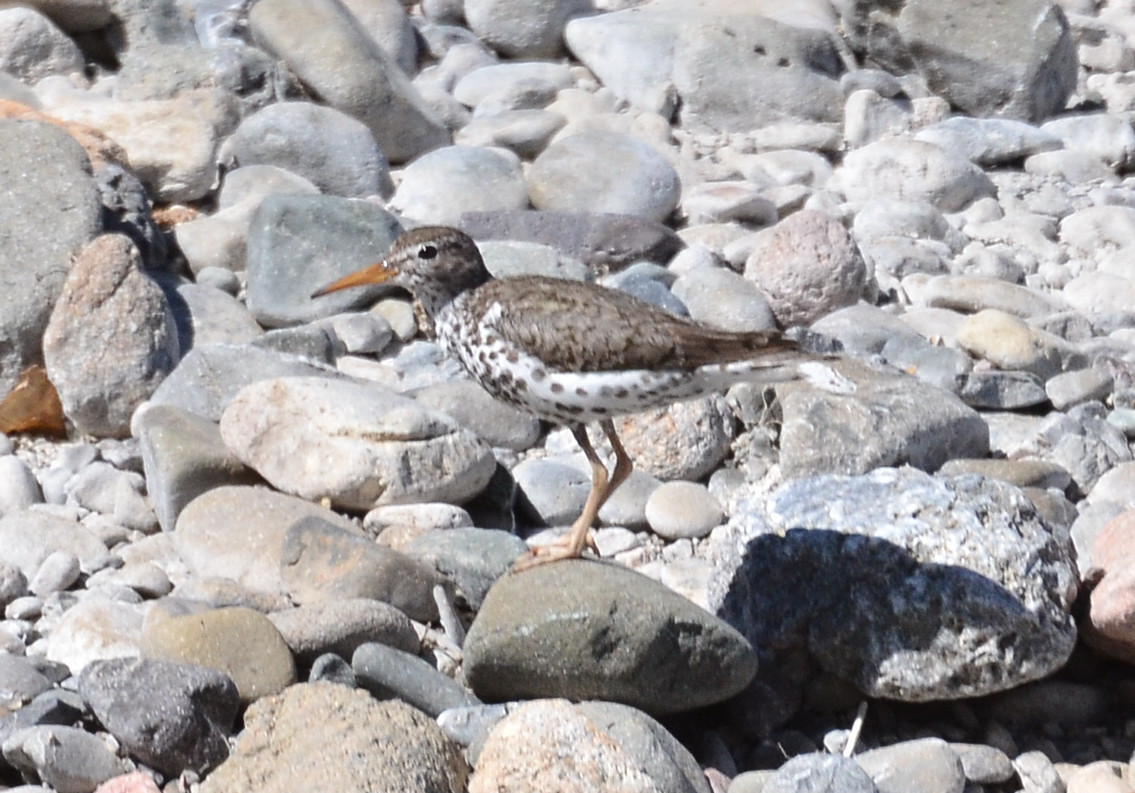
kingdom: Animalia
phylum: Chordata
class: Aves
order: Charadriiformes
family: Scolopacidae
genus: Actitis
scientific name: Actitis macularius
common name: Spotted sandpiper
